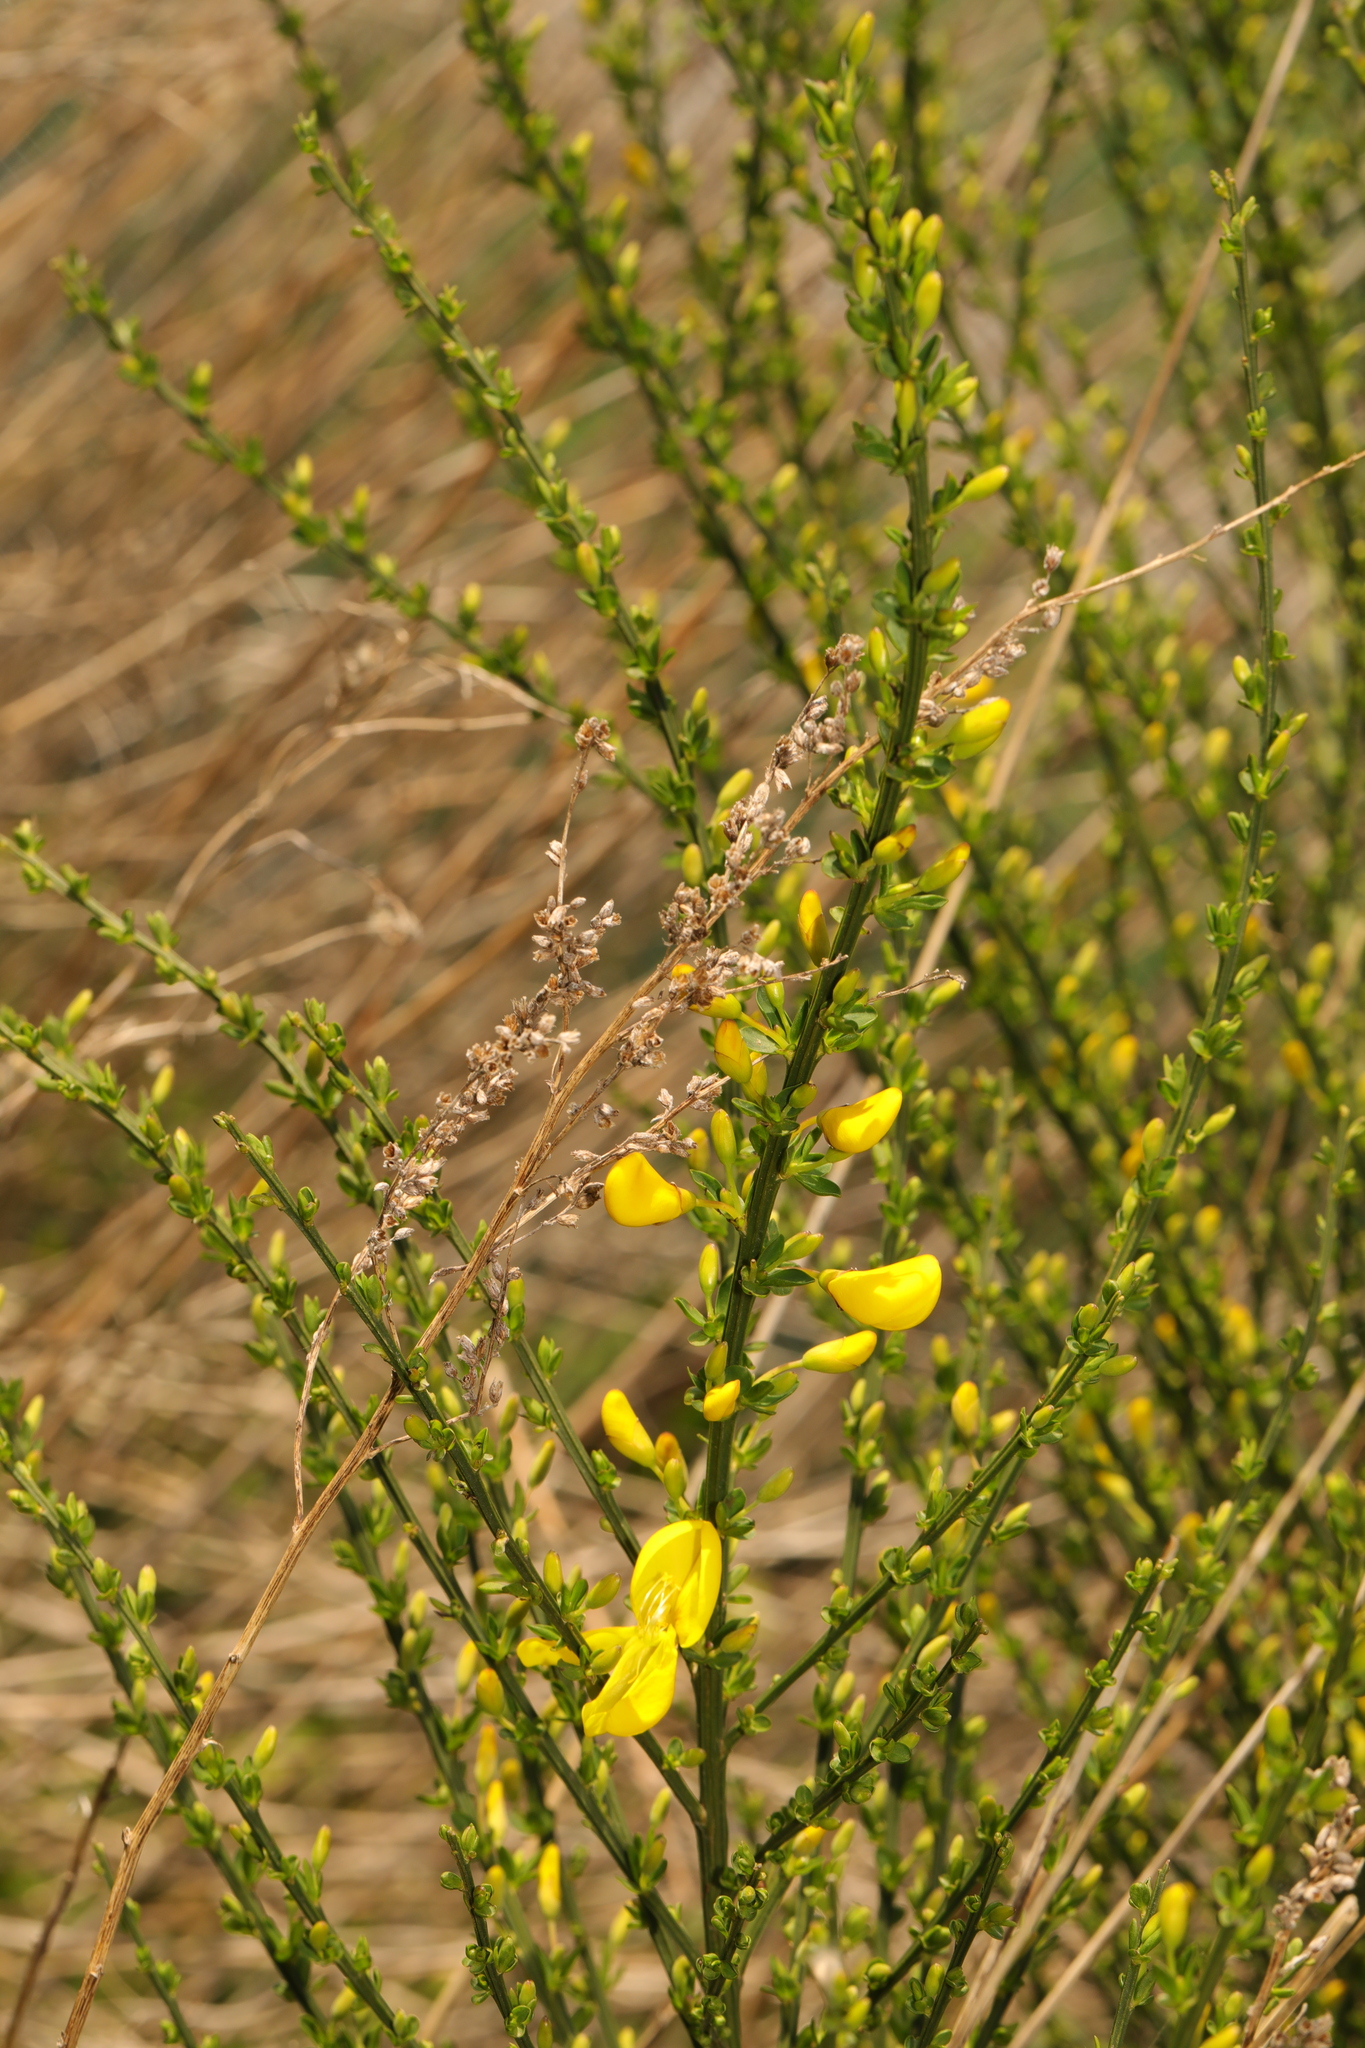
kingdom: Plantae
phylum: Tracheophyta
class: Magnoliopsida
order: Fabales
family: Fabaceae
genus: Cytisus
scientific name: Cytisus scoparius
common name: Scotch broom
